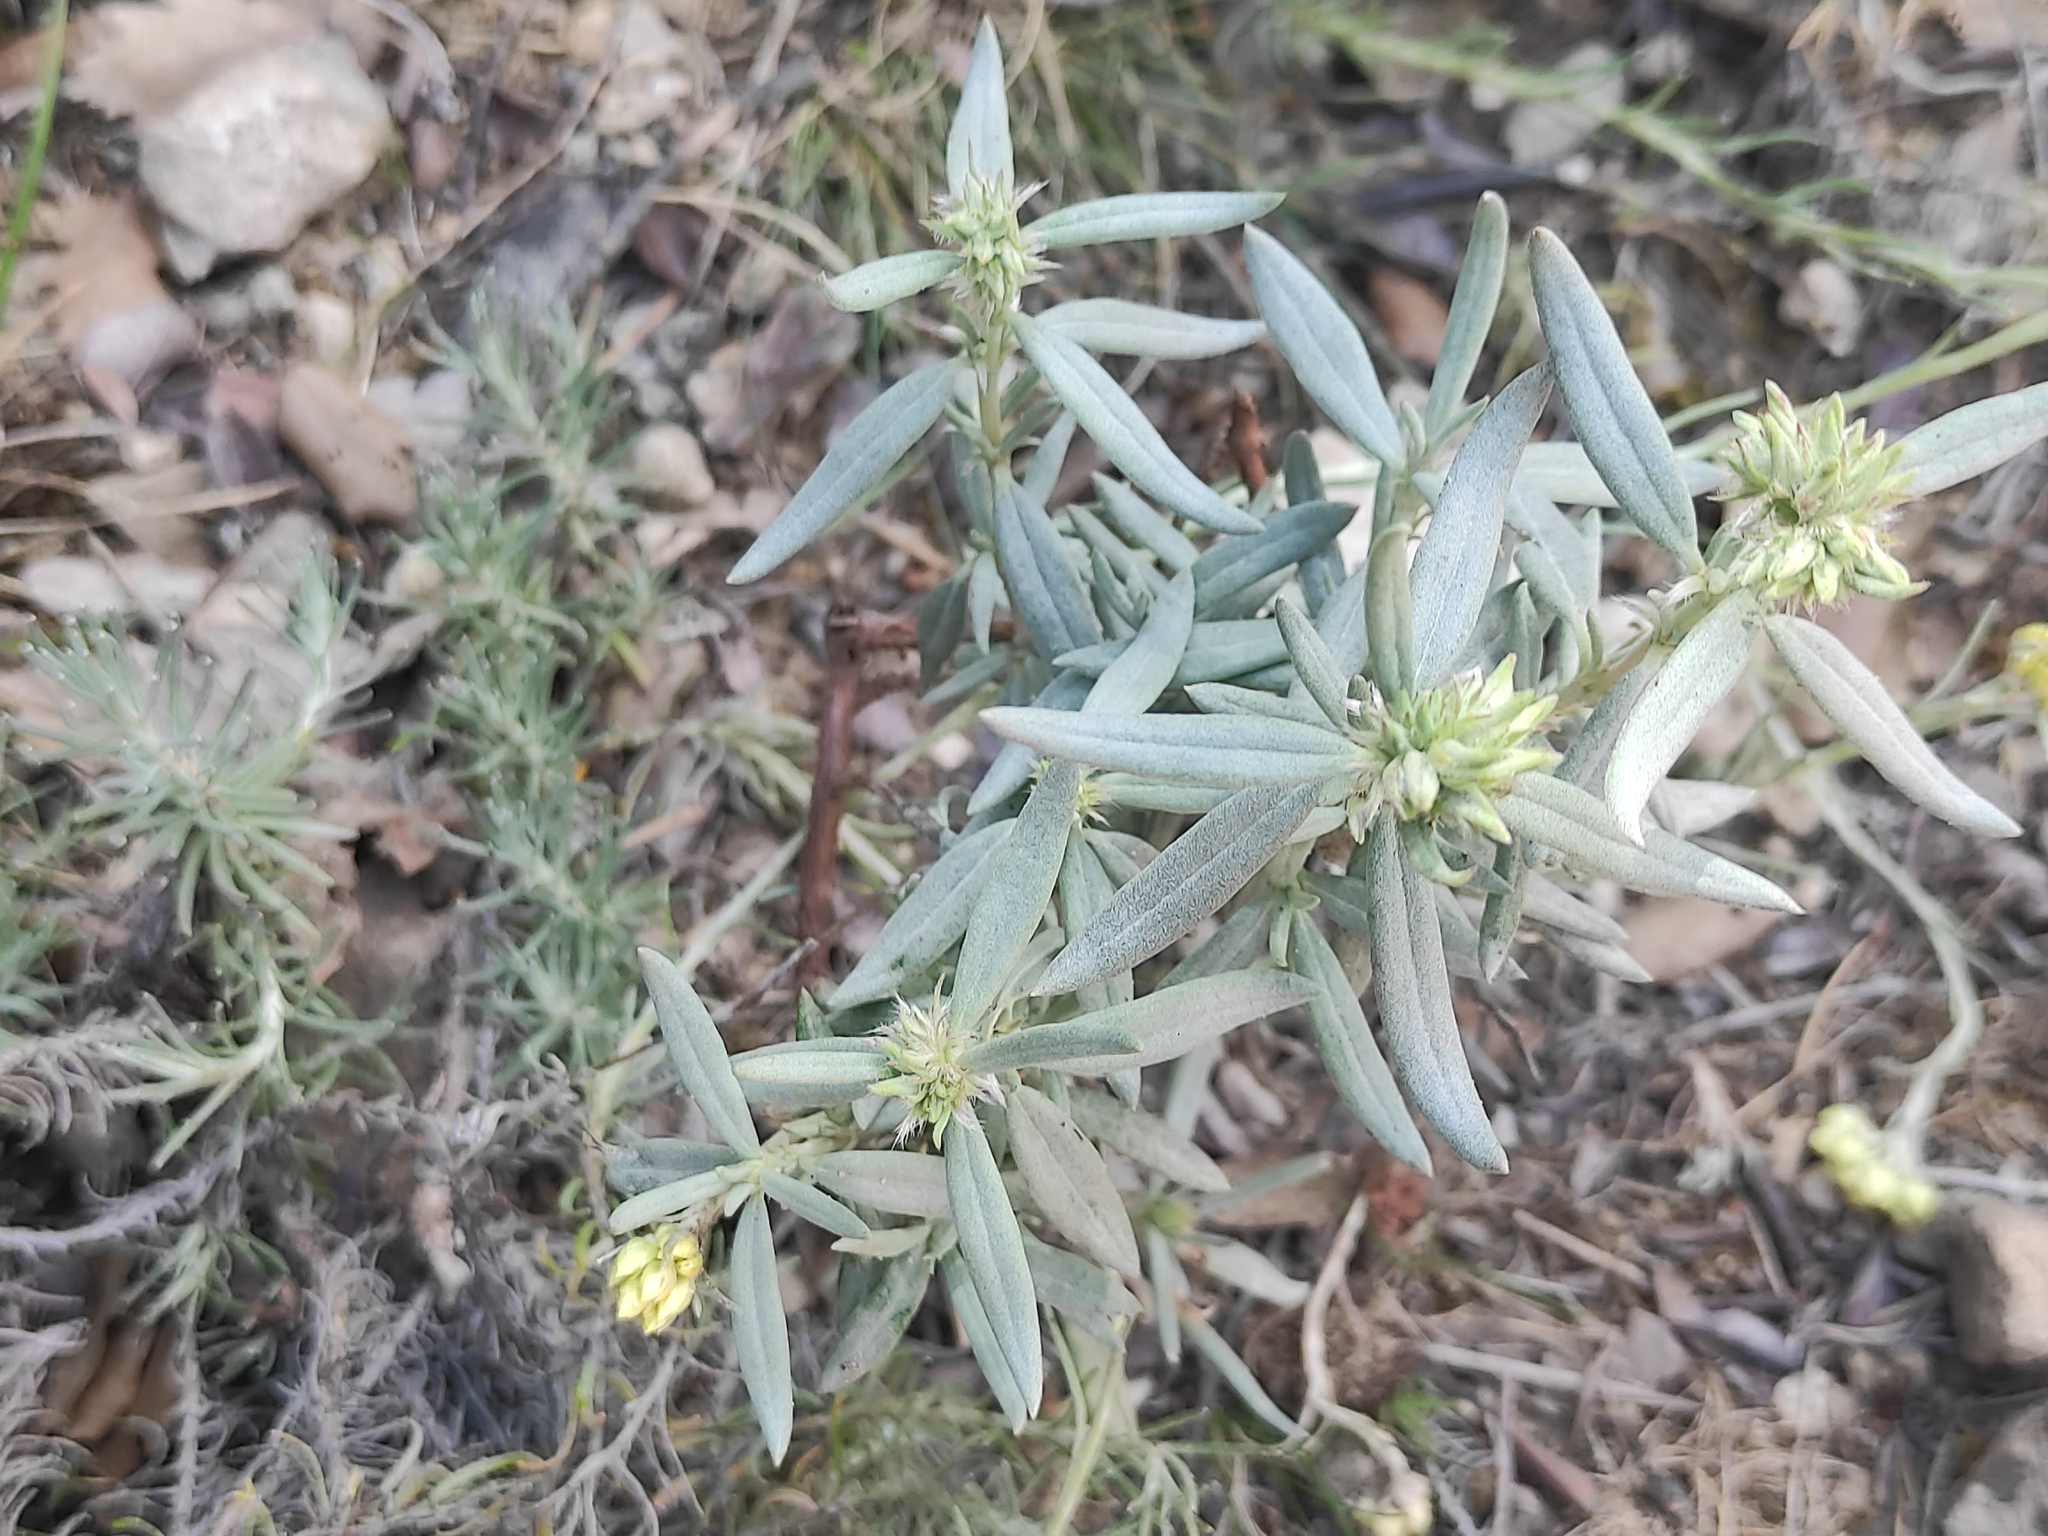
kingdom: Plantae
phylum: Tracheophyta
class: Magnoliopsida
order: Malvales
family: Cistaceae
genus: Helianthemum
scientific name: Helianthemum syriacum
